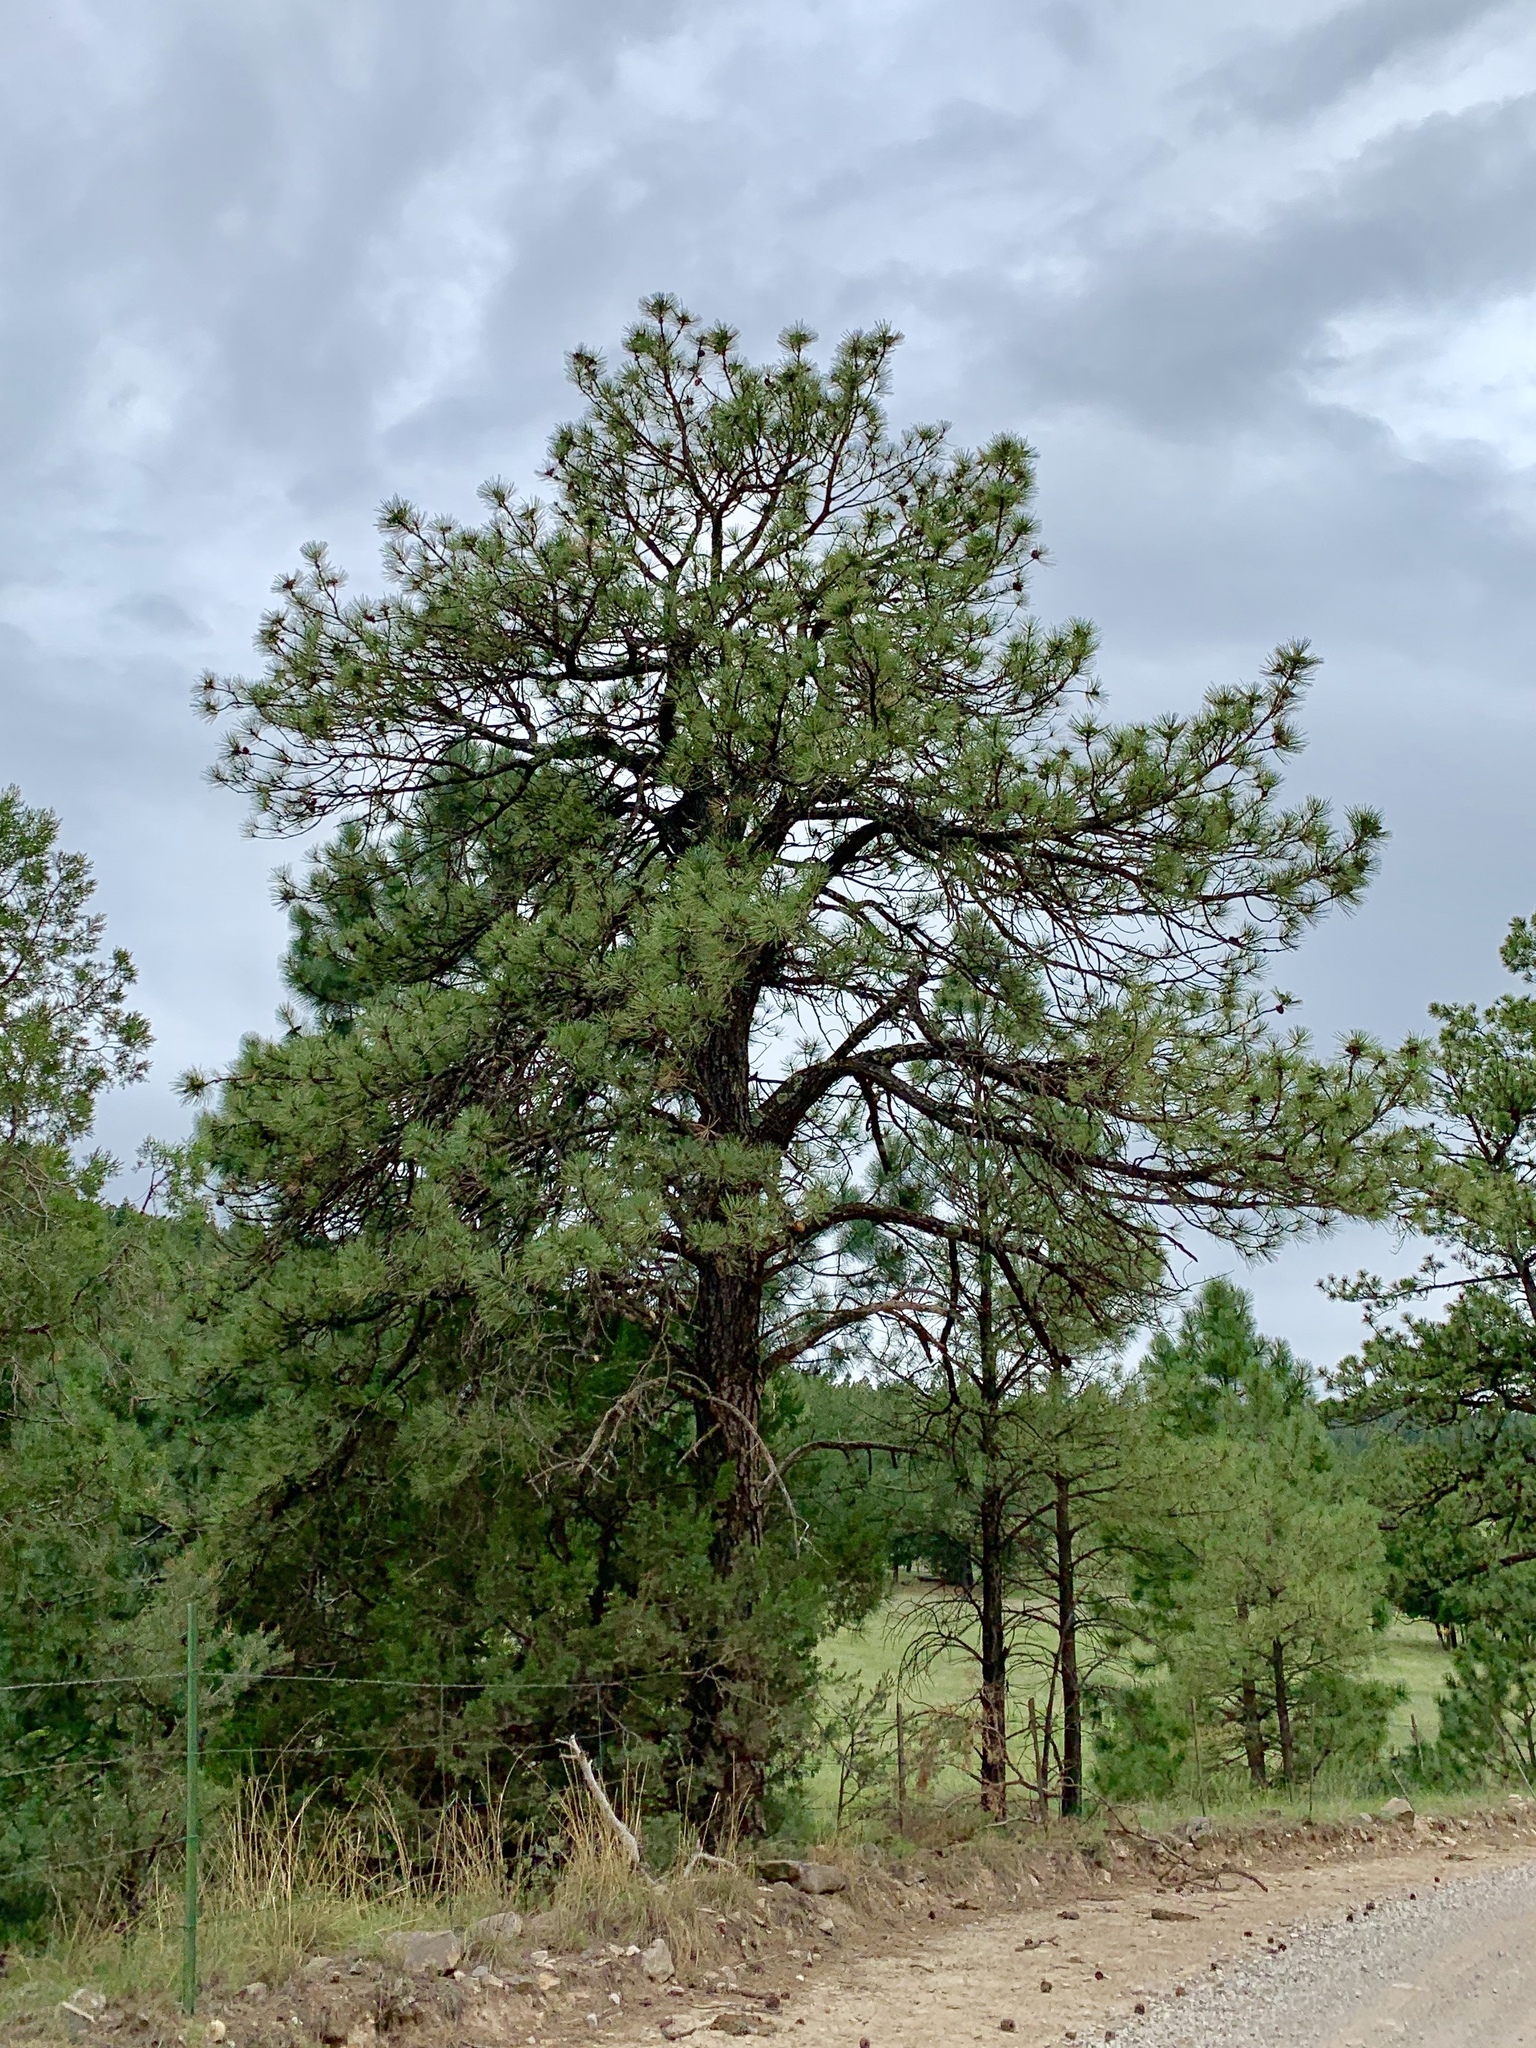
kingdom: Plantae
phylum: Tracheophyta
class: Pinopsida
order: Pinales
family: Pinaceae
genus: Pinus
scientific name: Pinus ponderosa
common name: Western yellow-pine
